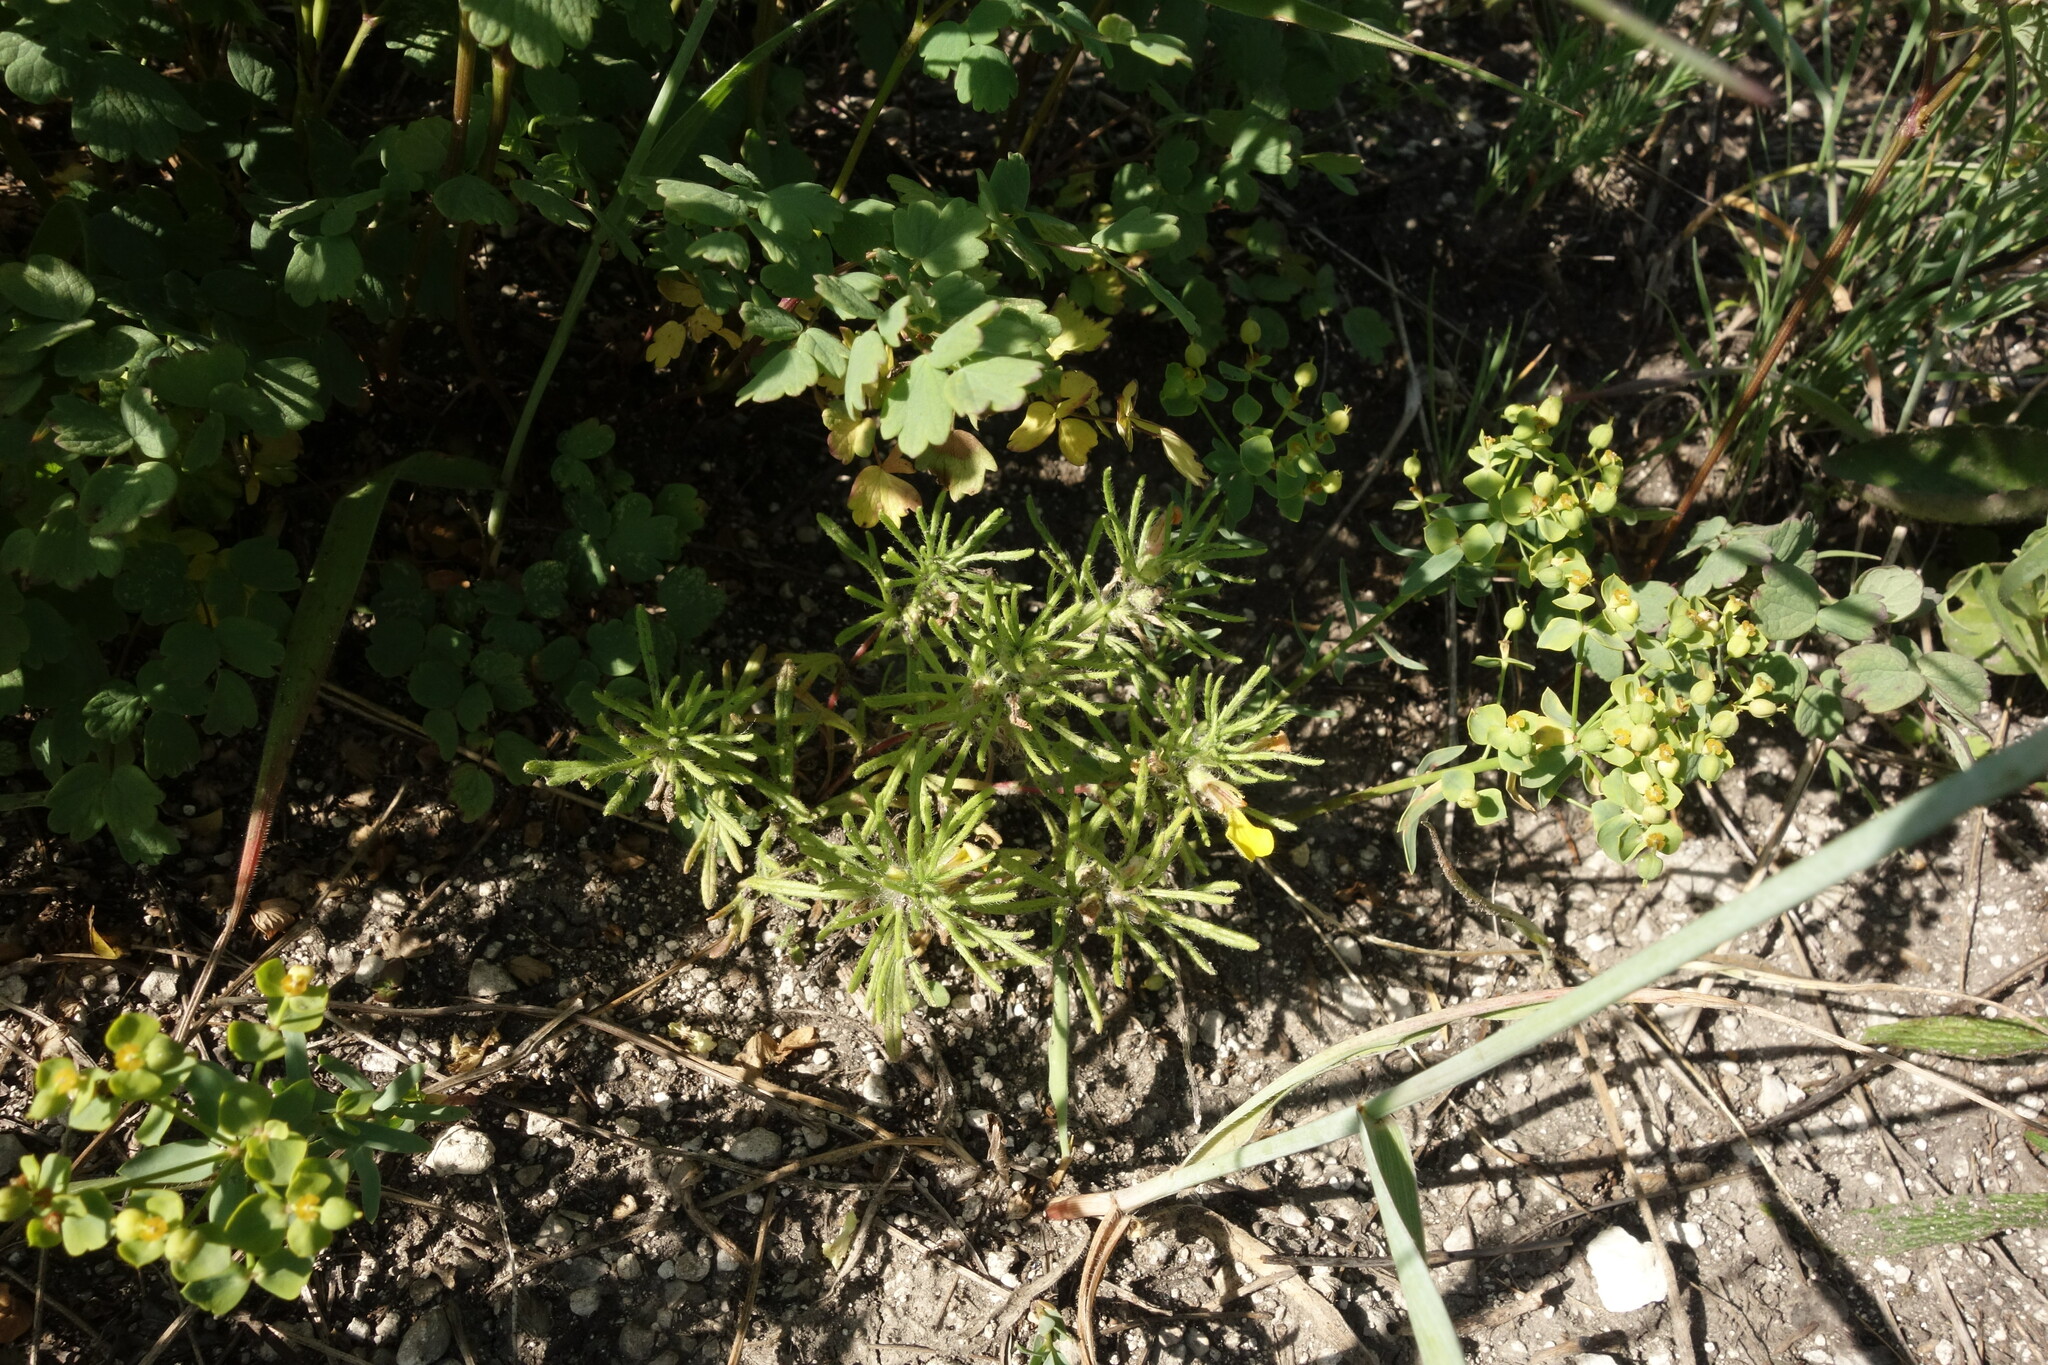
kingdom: Plantae
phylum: Tracheophyta
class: Magnoliopsida
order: Lamiales
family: Lamiaceae
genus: Ajuga
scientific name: Ajuga chamaepitys
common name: Ground-pine
